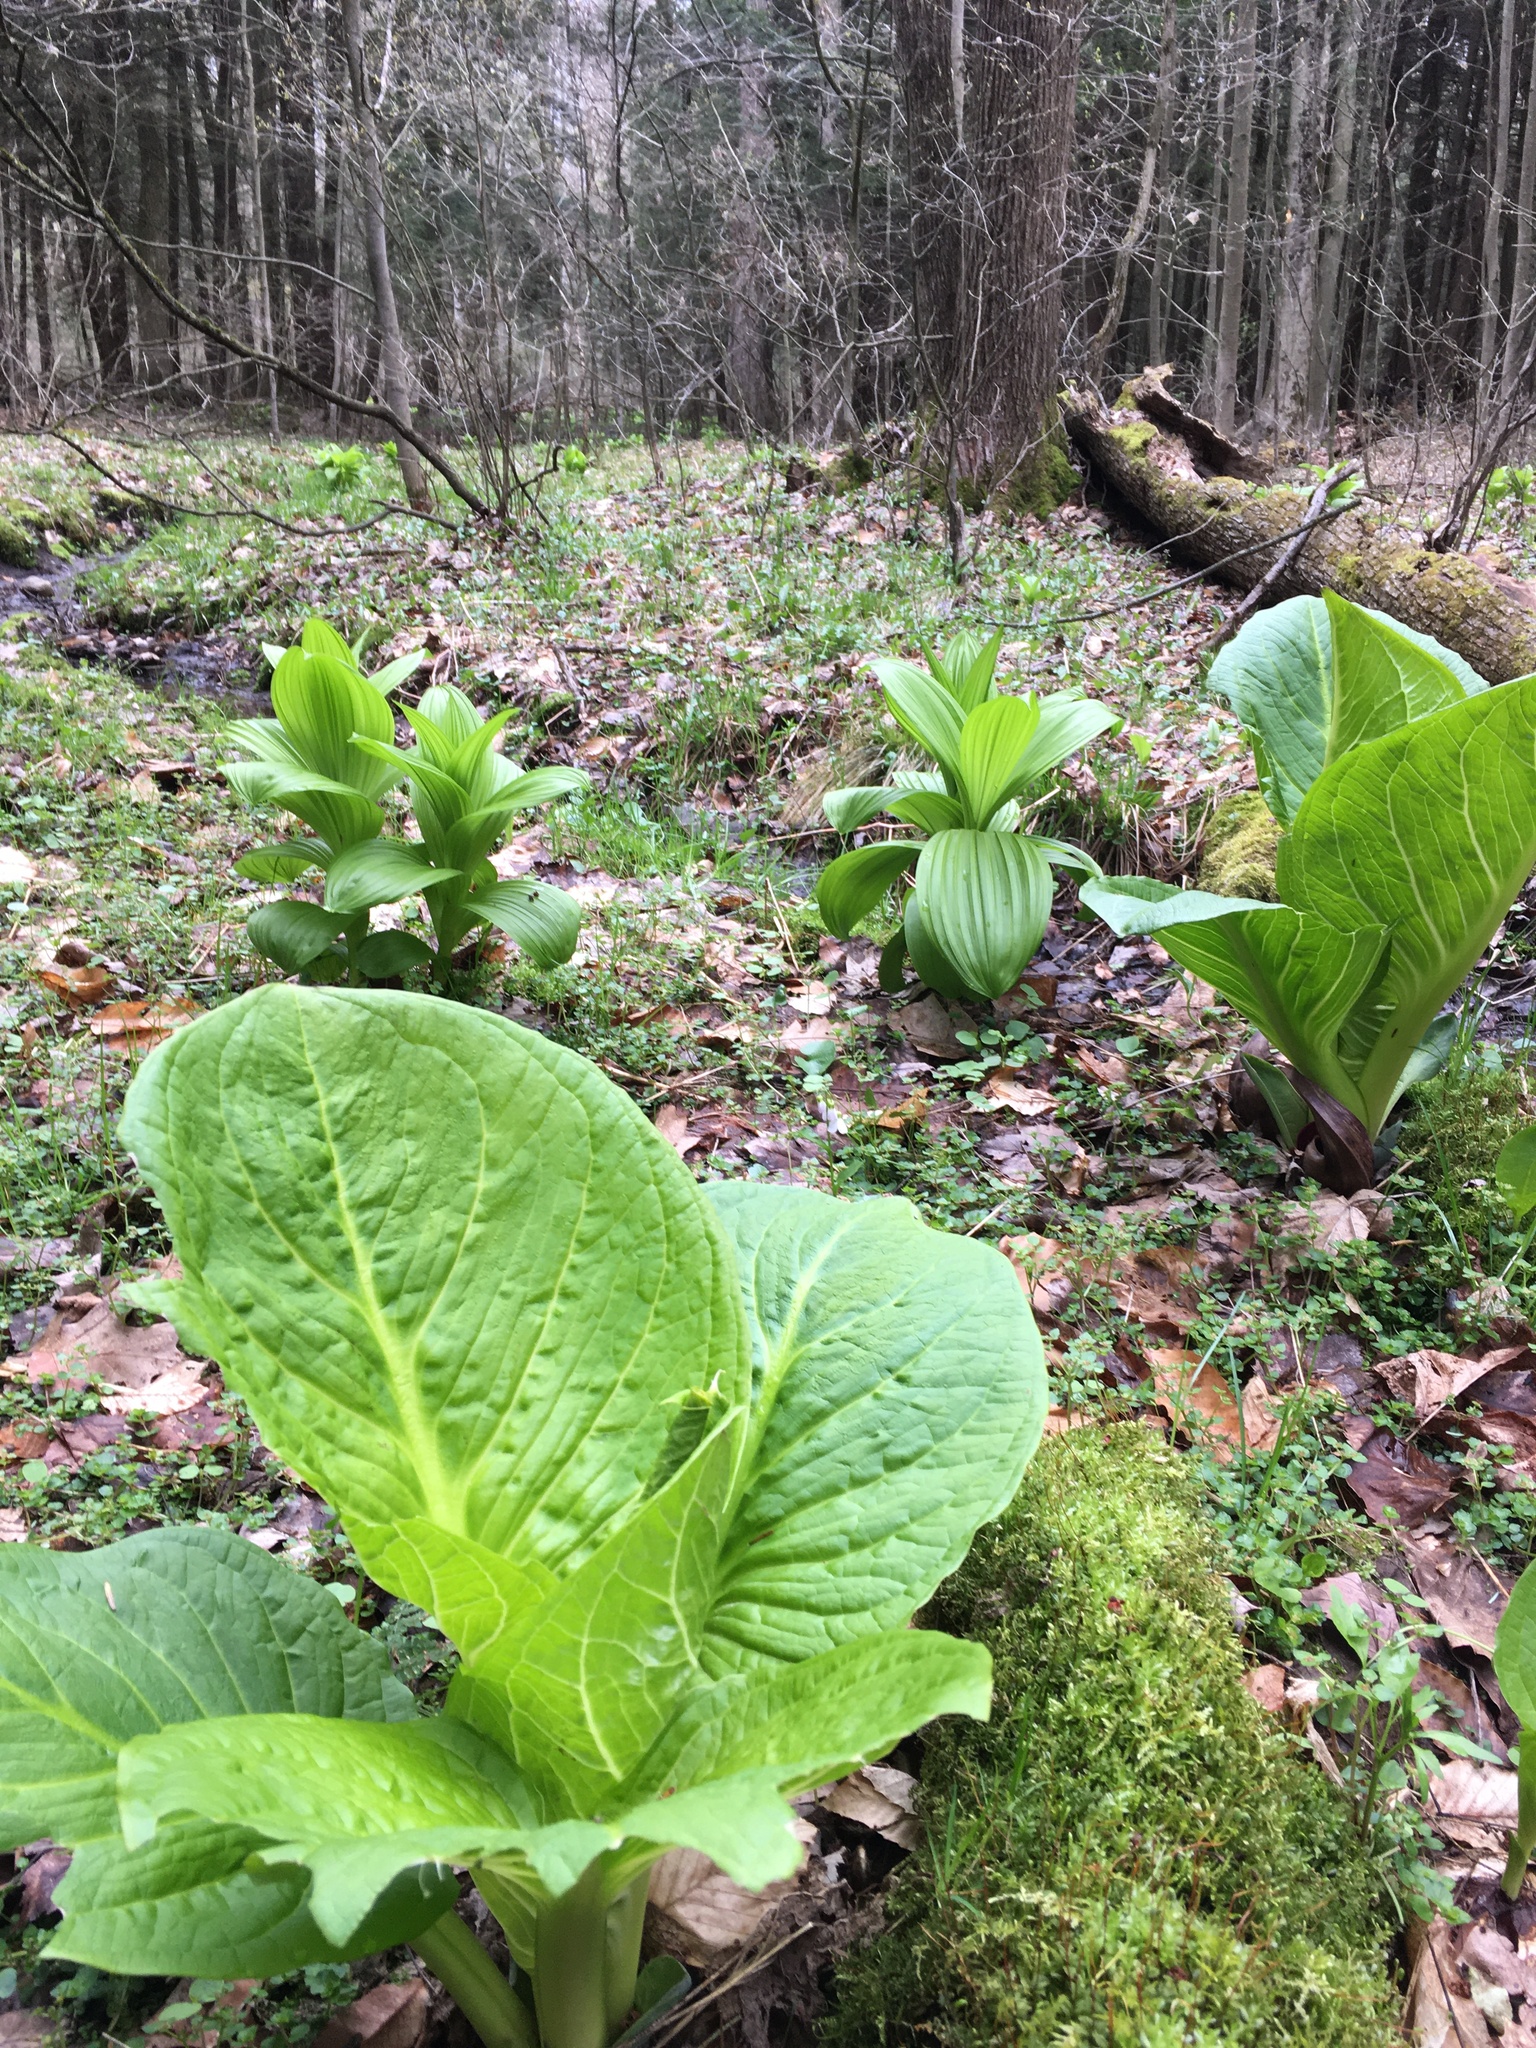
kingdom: Plantae
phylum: Tracheophyta
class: Liliopsida
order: Alismatales
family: Araceae
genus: Symplocarpus
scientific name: Symplocarpus foetidus
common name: Eastern skunk cabbage
